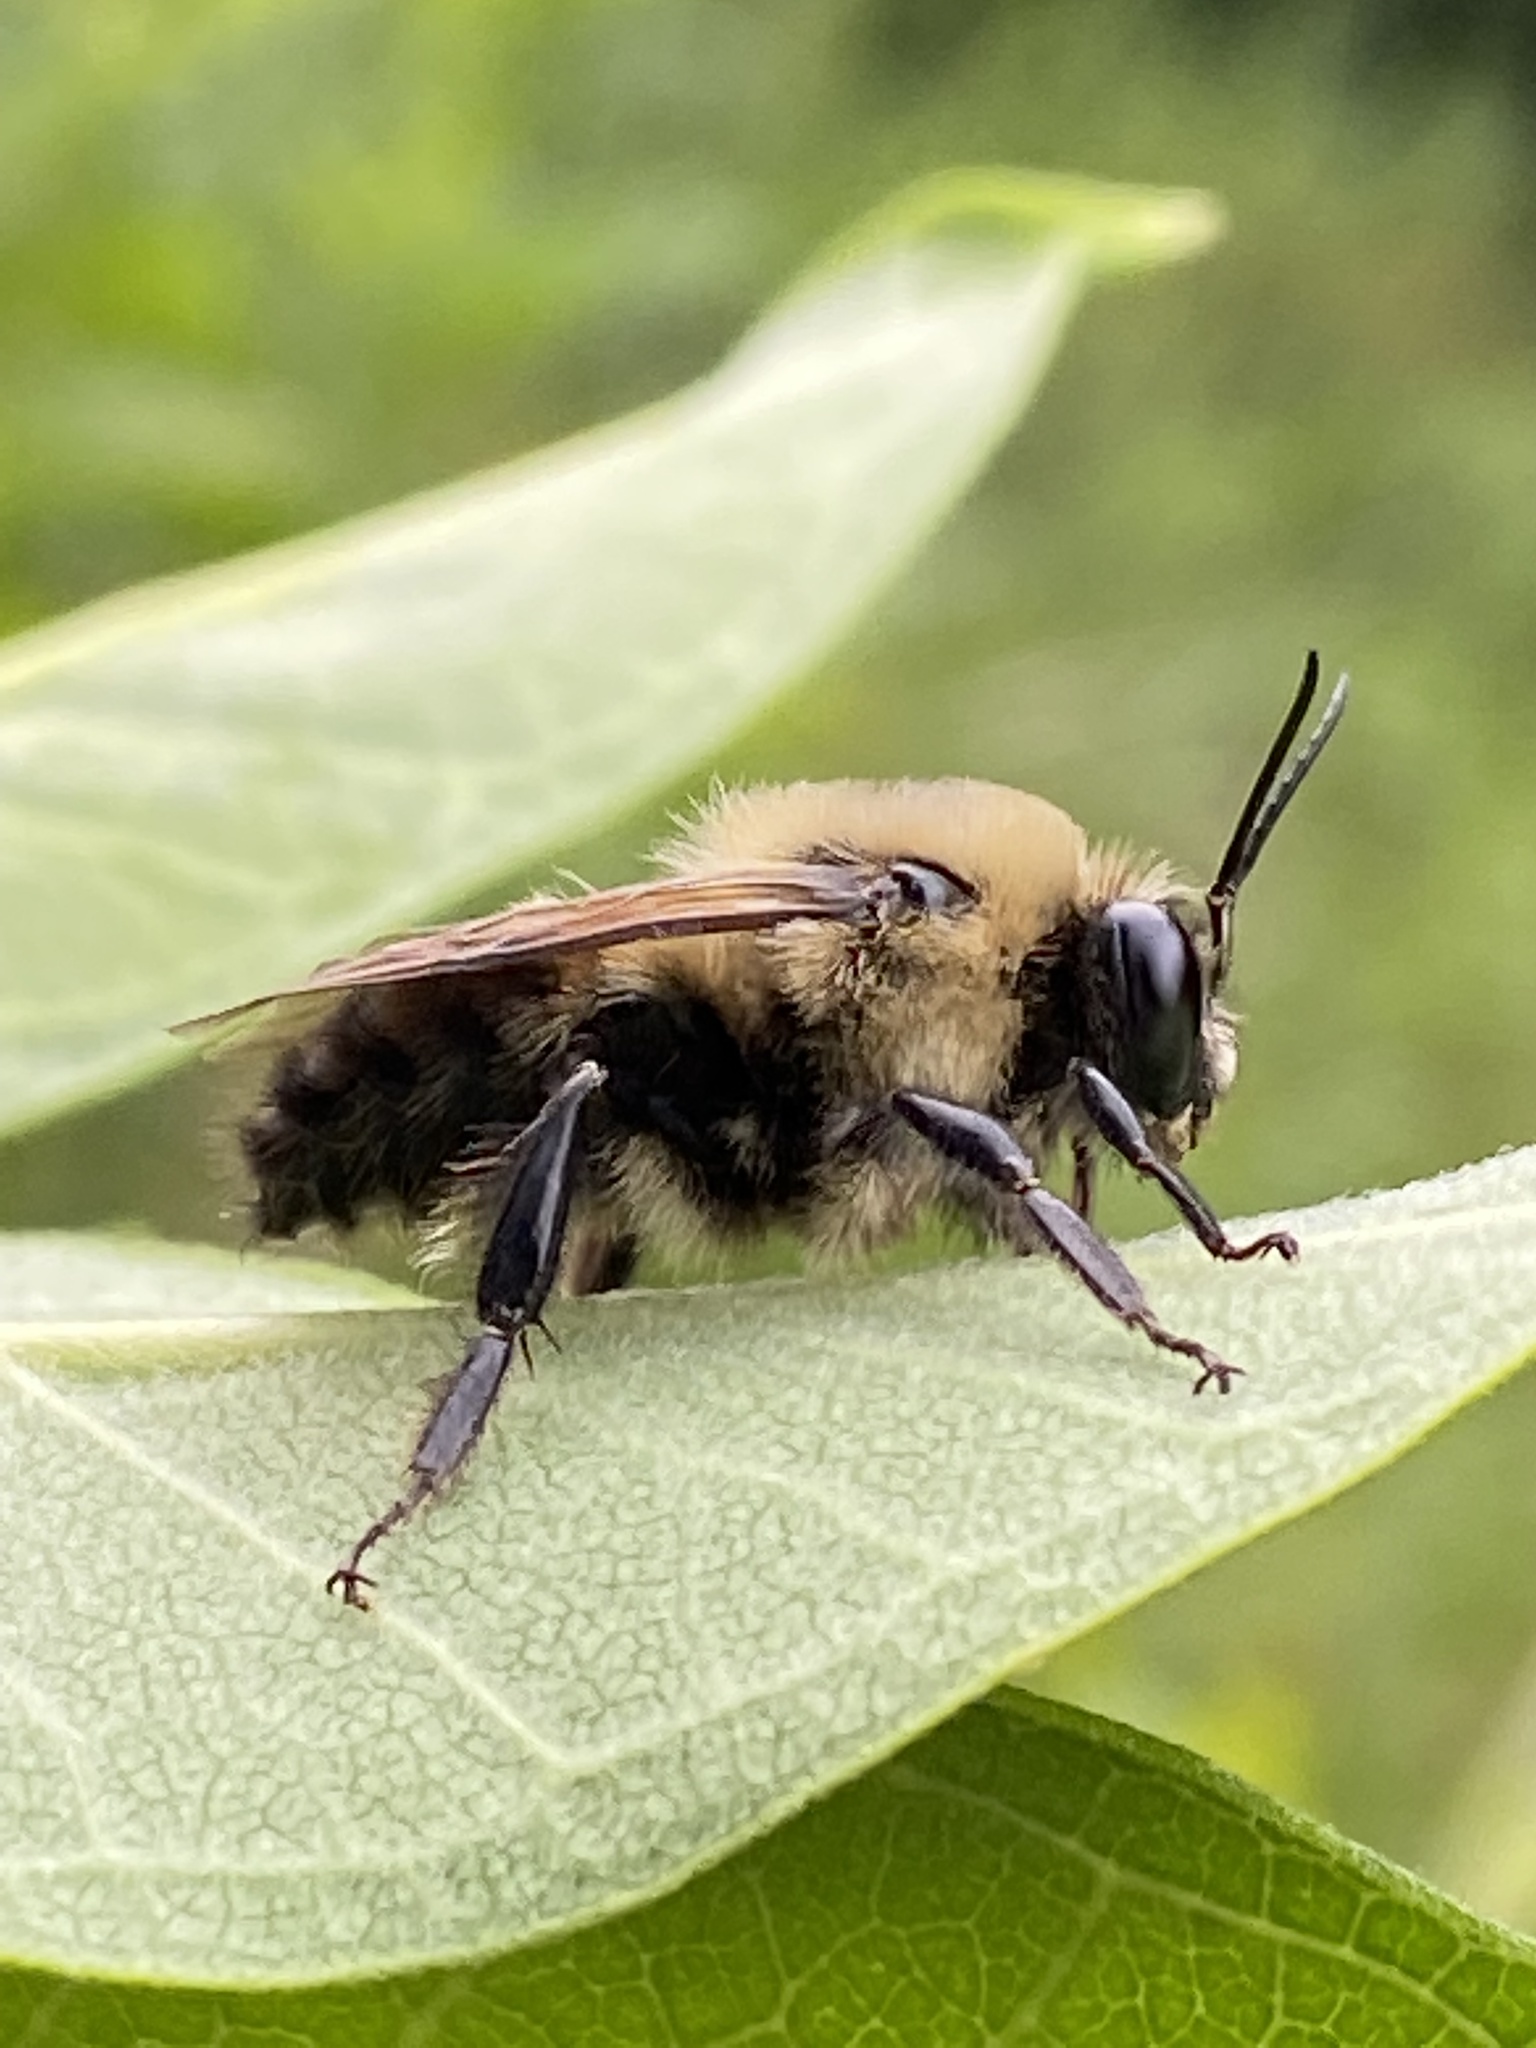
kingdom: Animalia
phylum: Arthropoda
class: Insecta
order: Hymenoptera
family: Apidae
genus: Bombus
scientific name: Bombus griseocollis
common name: Brown-belted bumble bee
